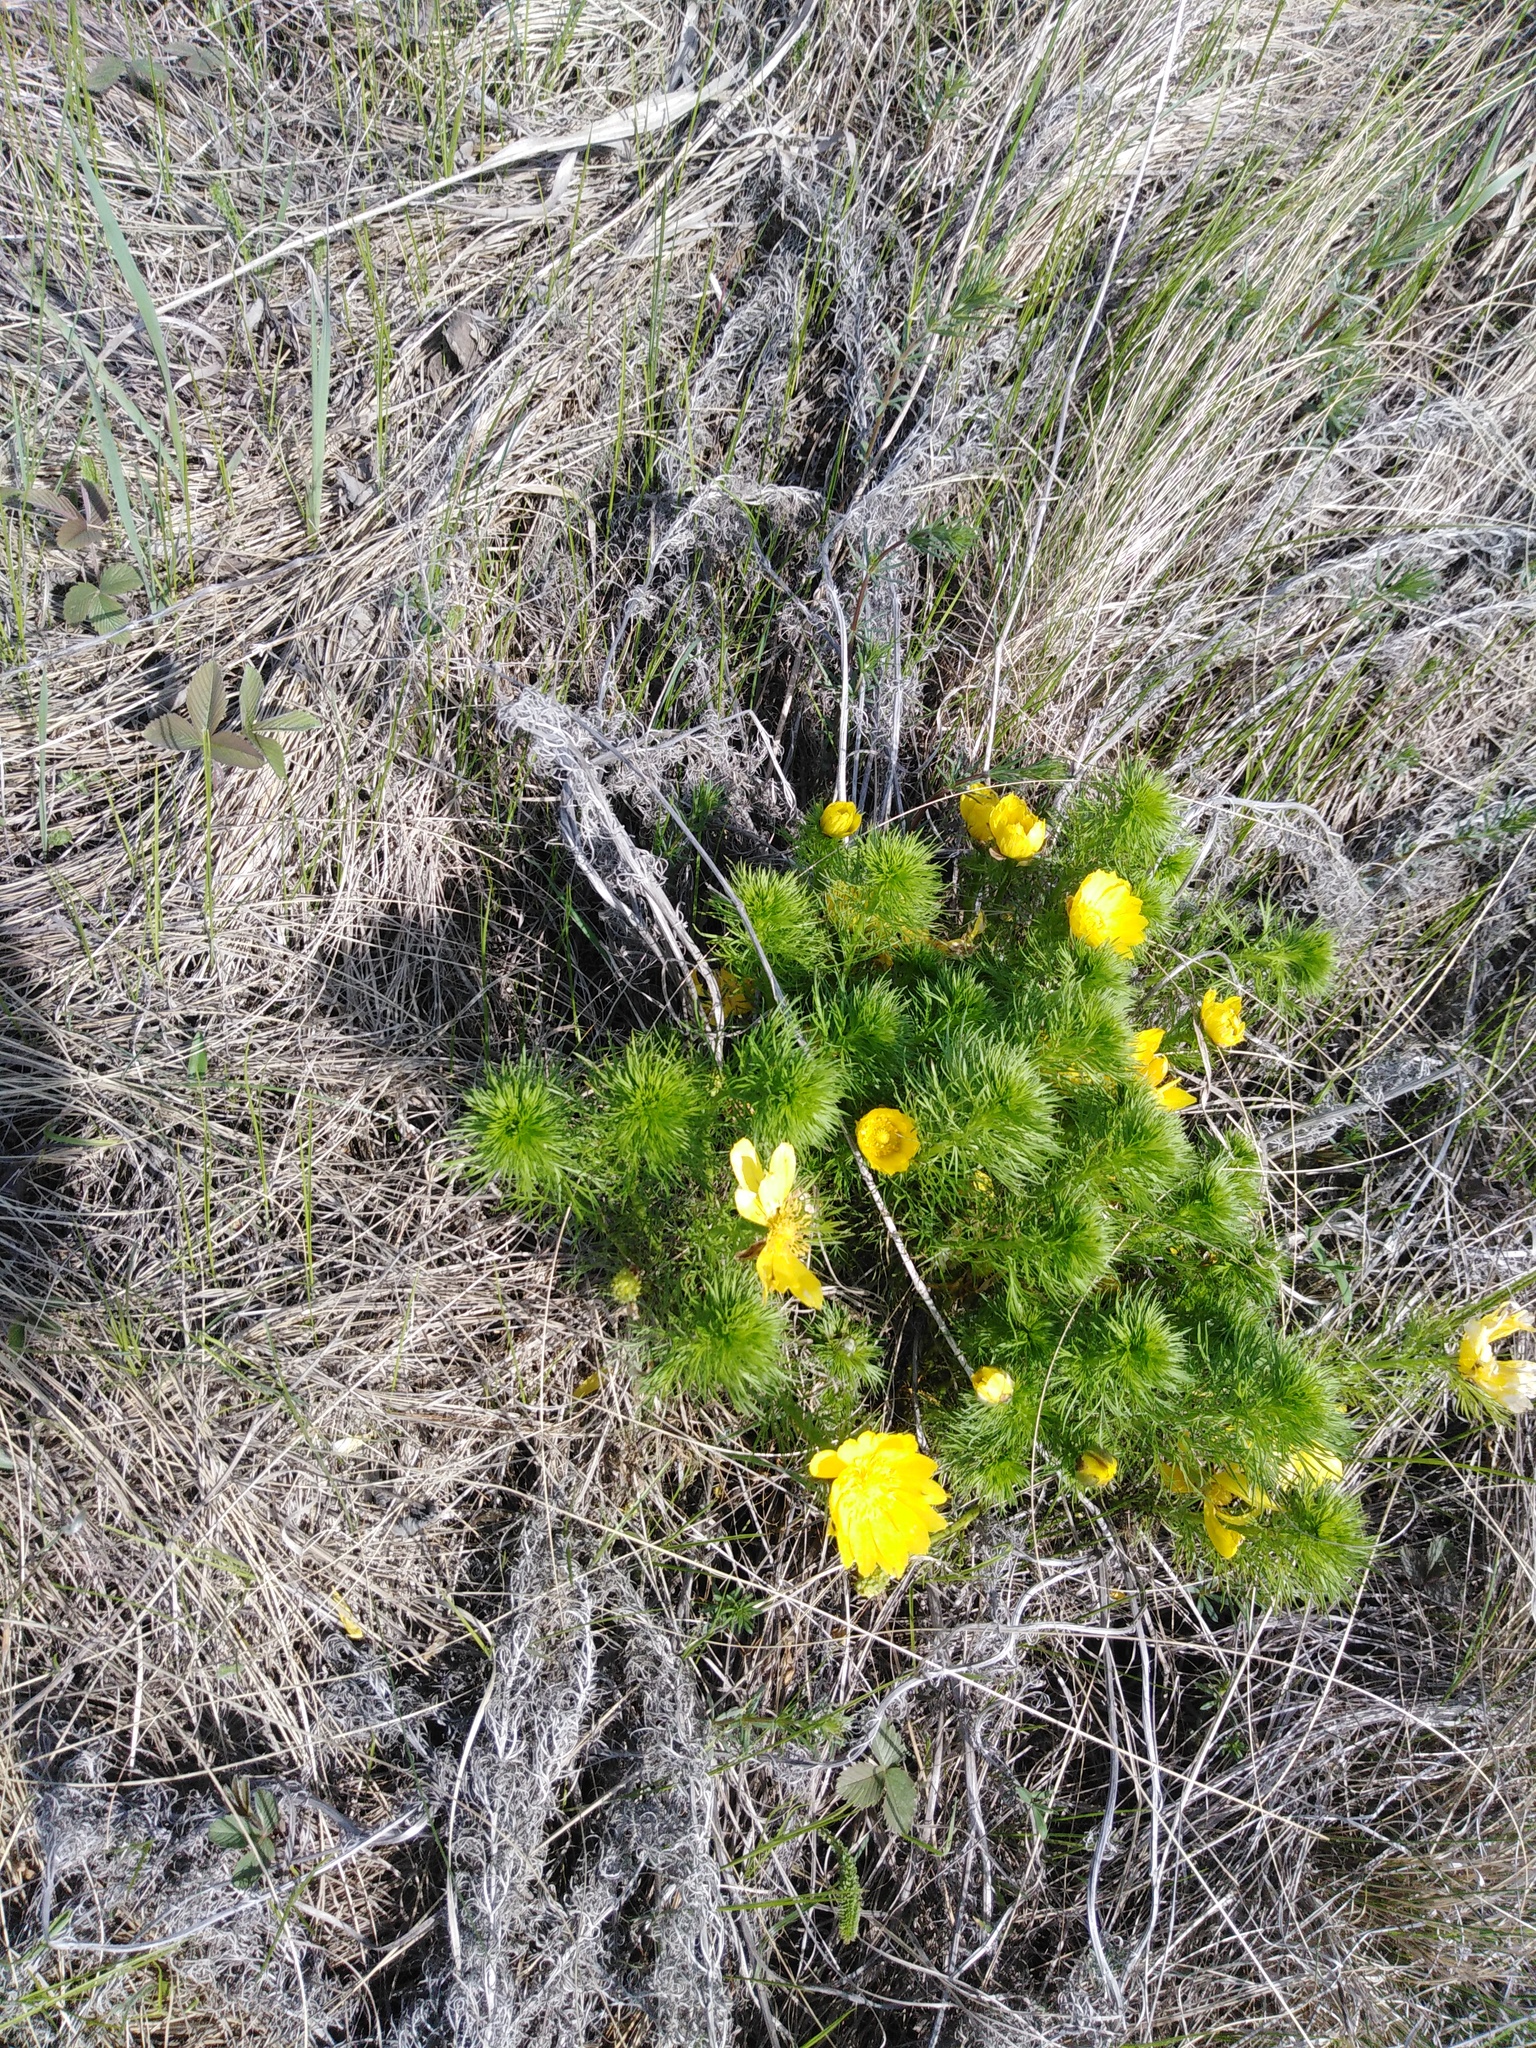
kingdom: Plantae
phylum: Tracheophyta
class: Magnoliopsida
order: Ranunculales
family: Ranunculaceae
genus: Adonis
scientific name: Adonis vernalis
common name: Yellow pheasants-eye
